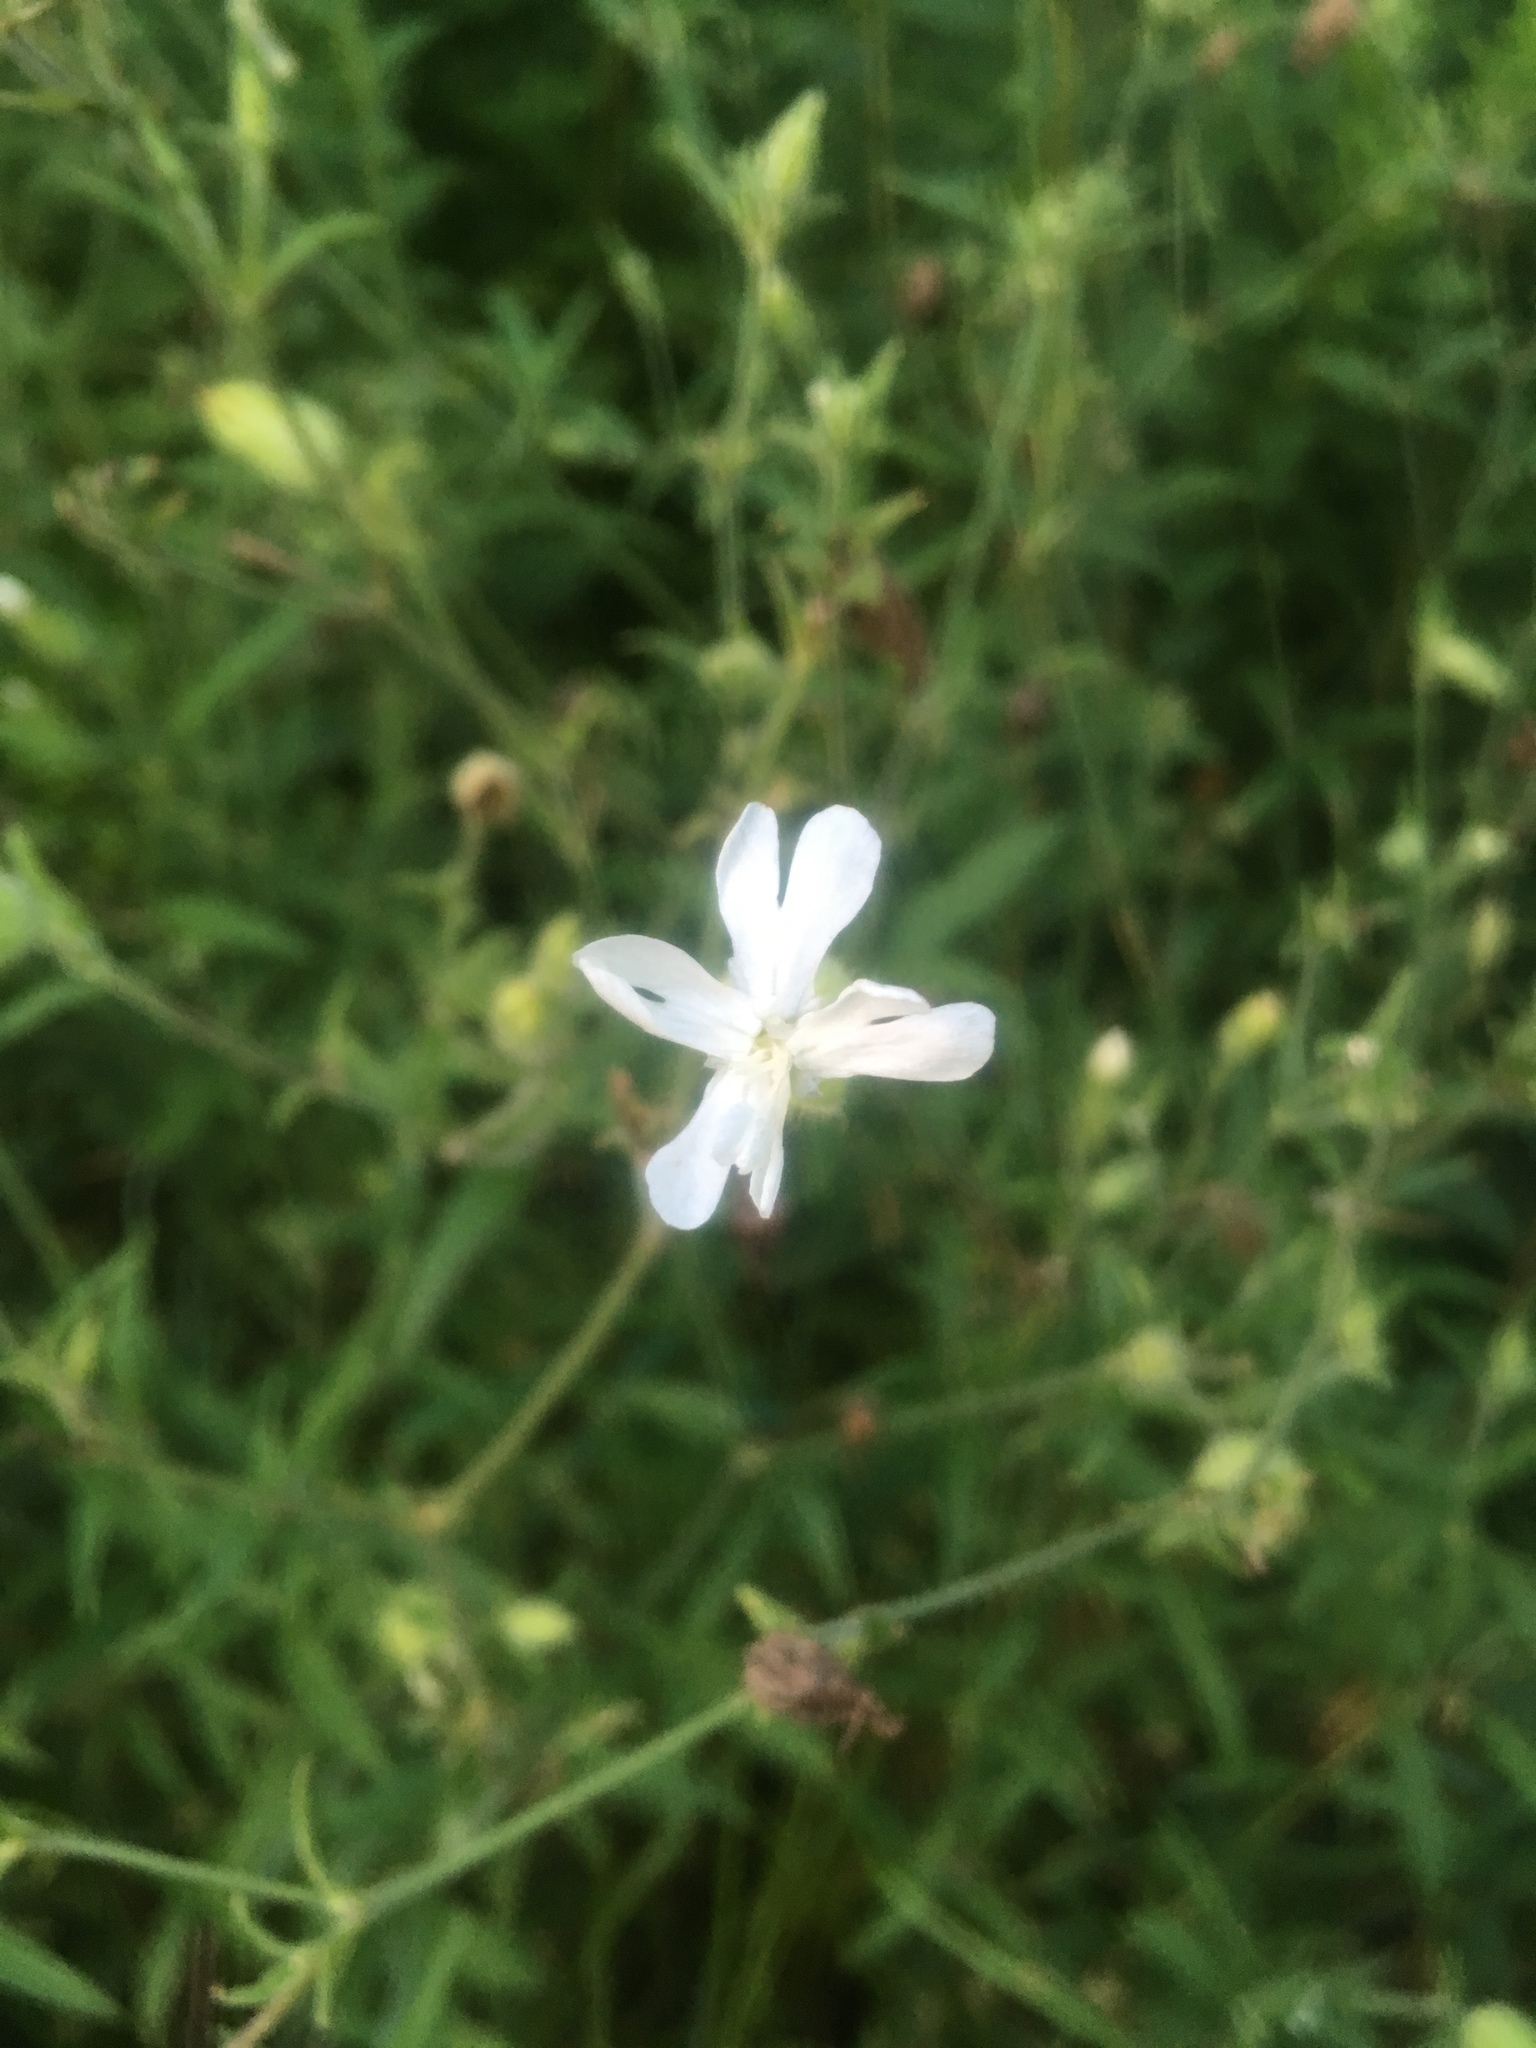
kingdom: Plantae
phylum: Tracheophyta
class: Magnoliopsida
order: Caryophyllales
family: Caryophyllaceae
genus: Silene
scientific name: Silene latifolia
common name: White campion
